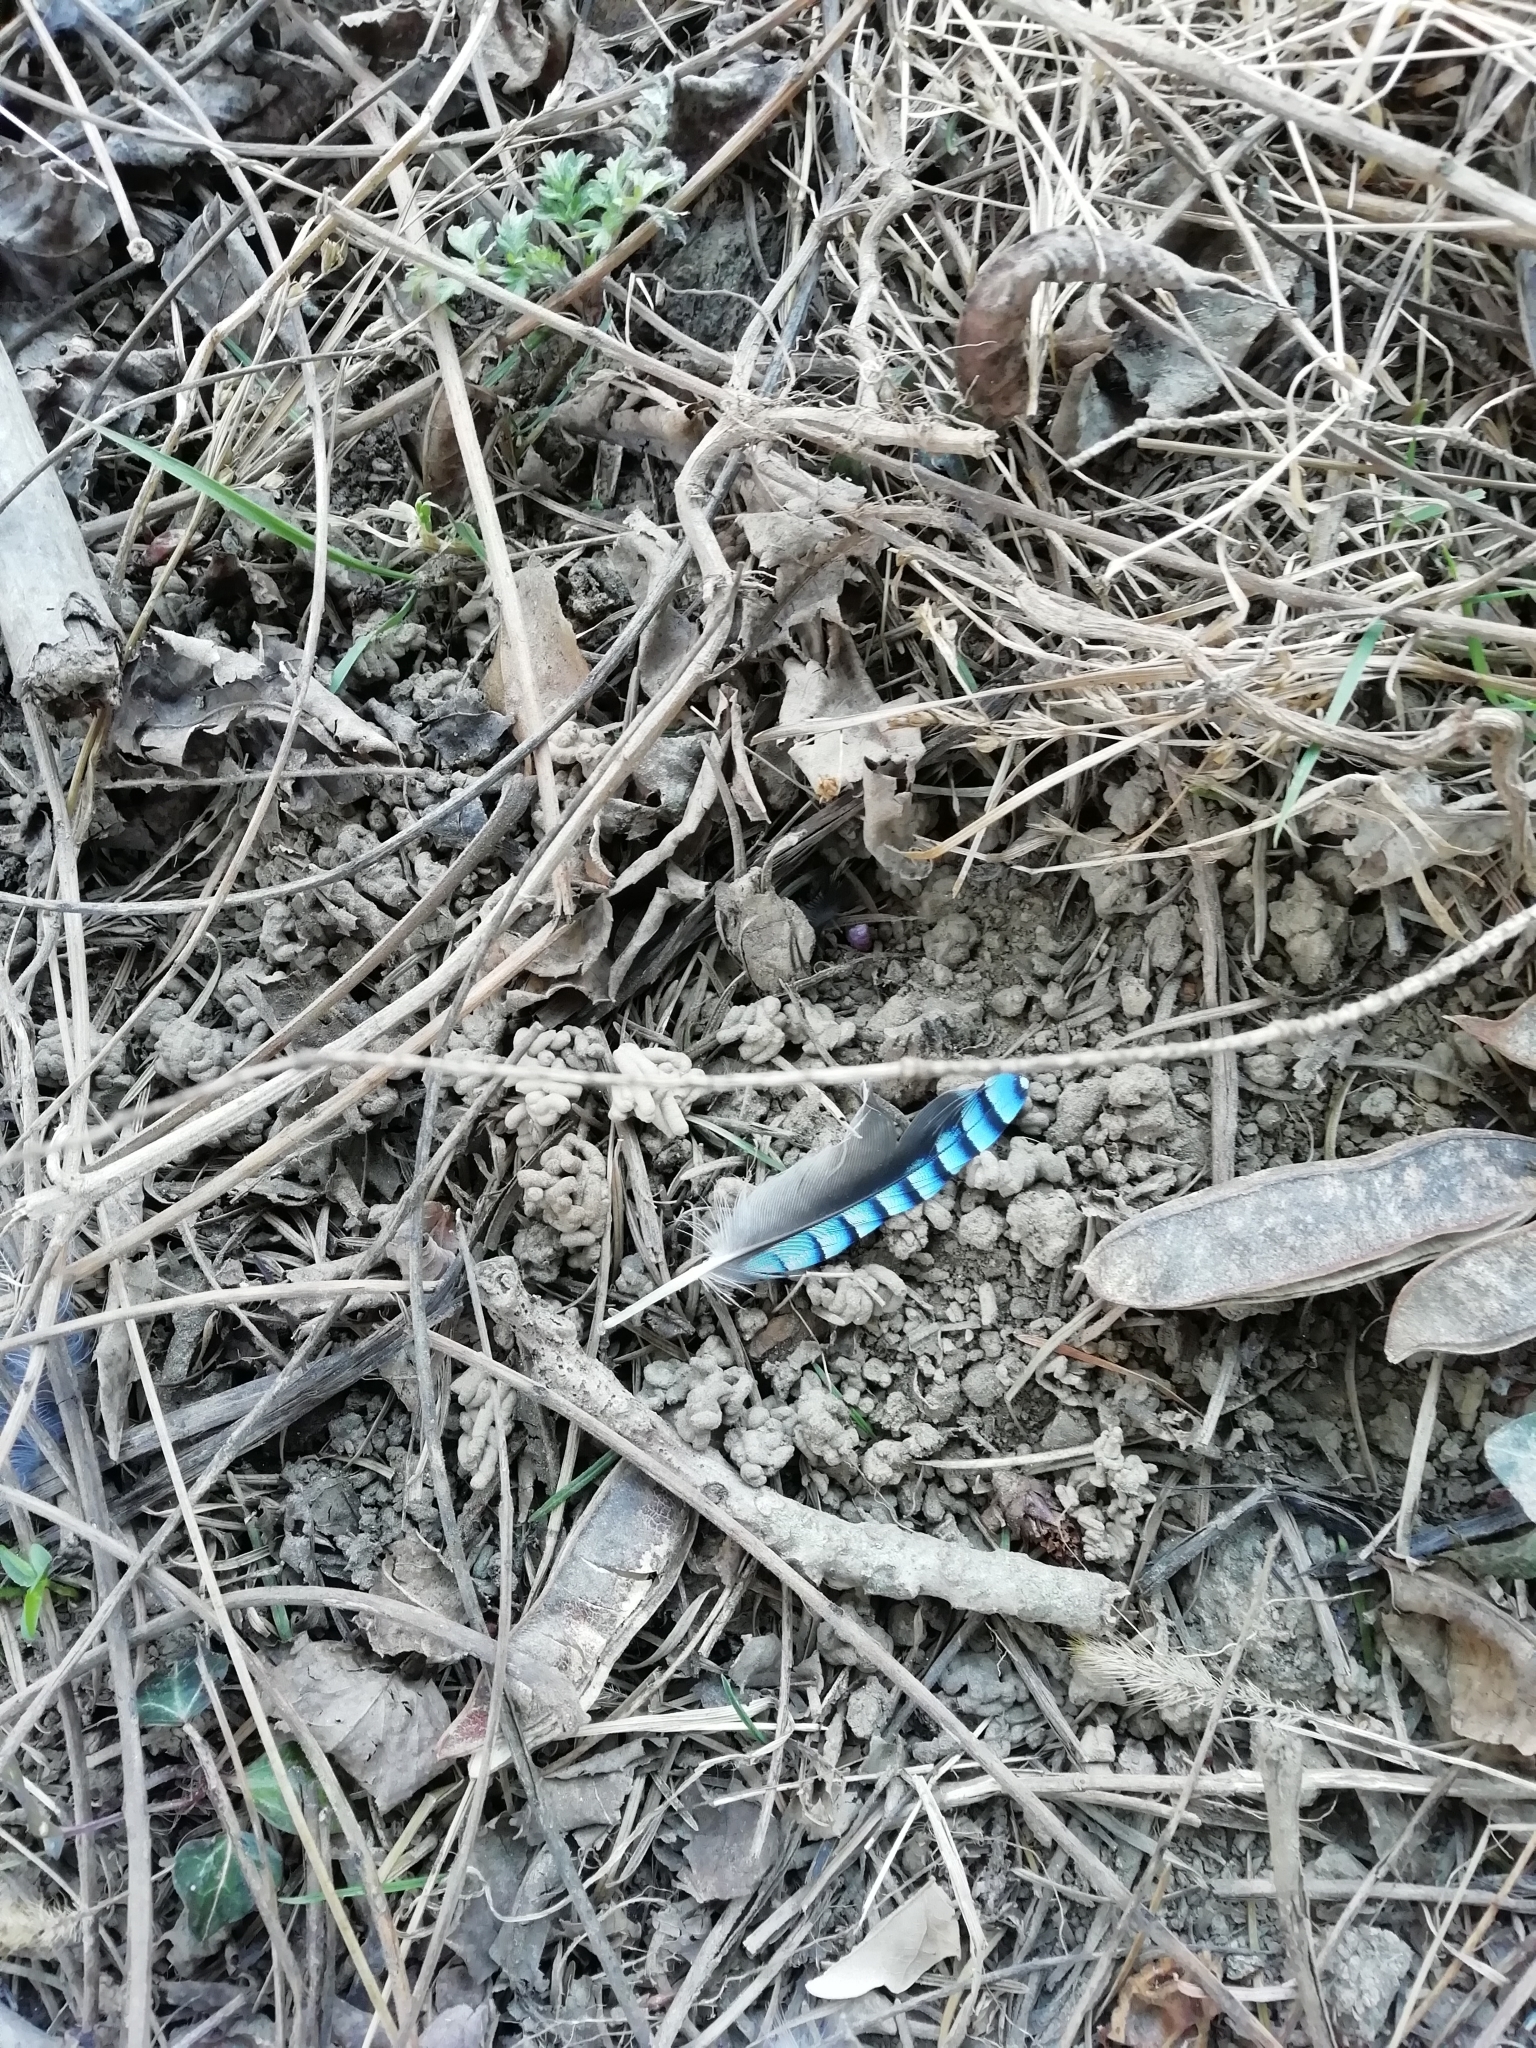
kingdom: Animalia
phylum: Chordata
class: Aves
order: Passeriformes
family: Corvidae
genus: Garrulus
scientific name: Garrulus glandarius
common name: Eurasian jay
